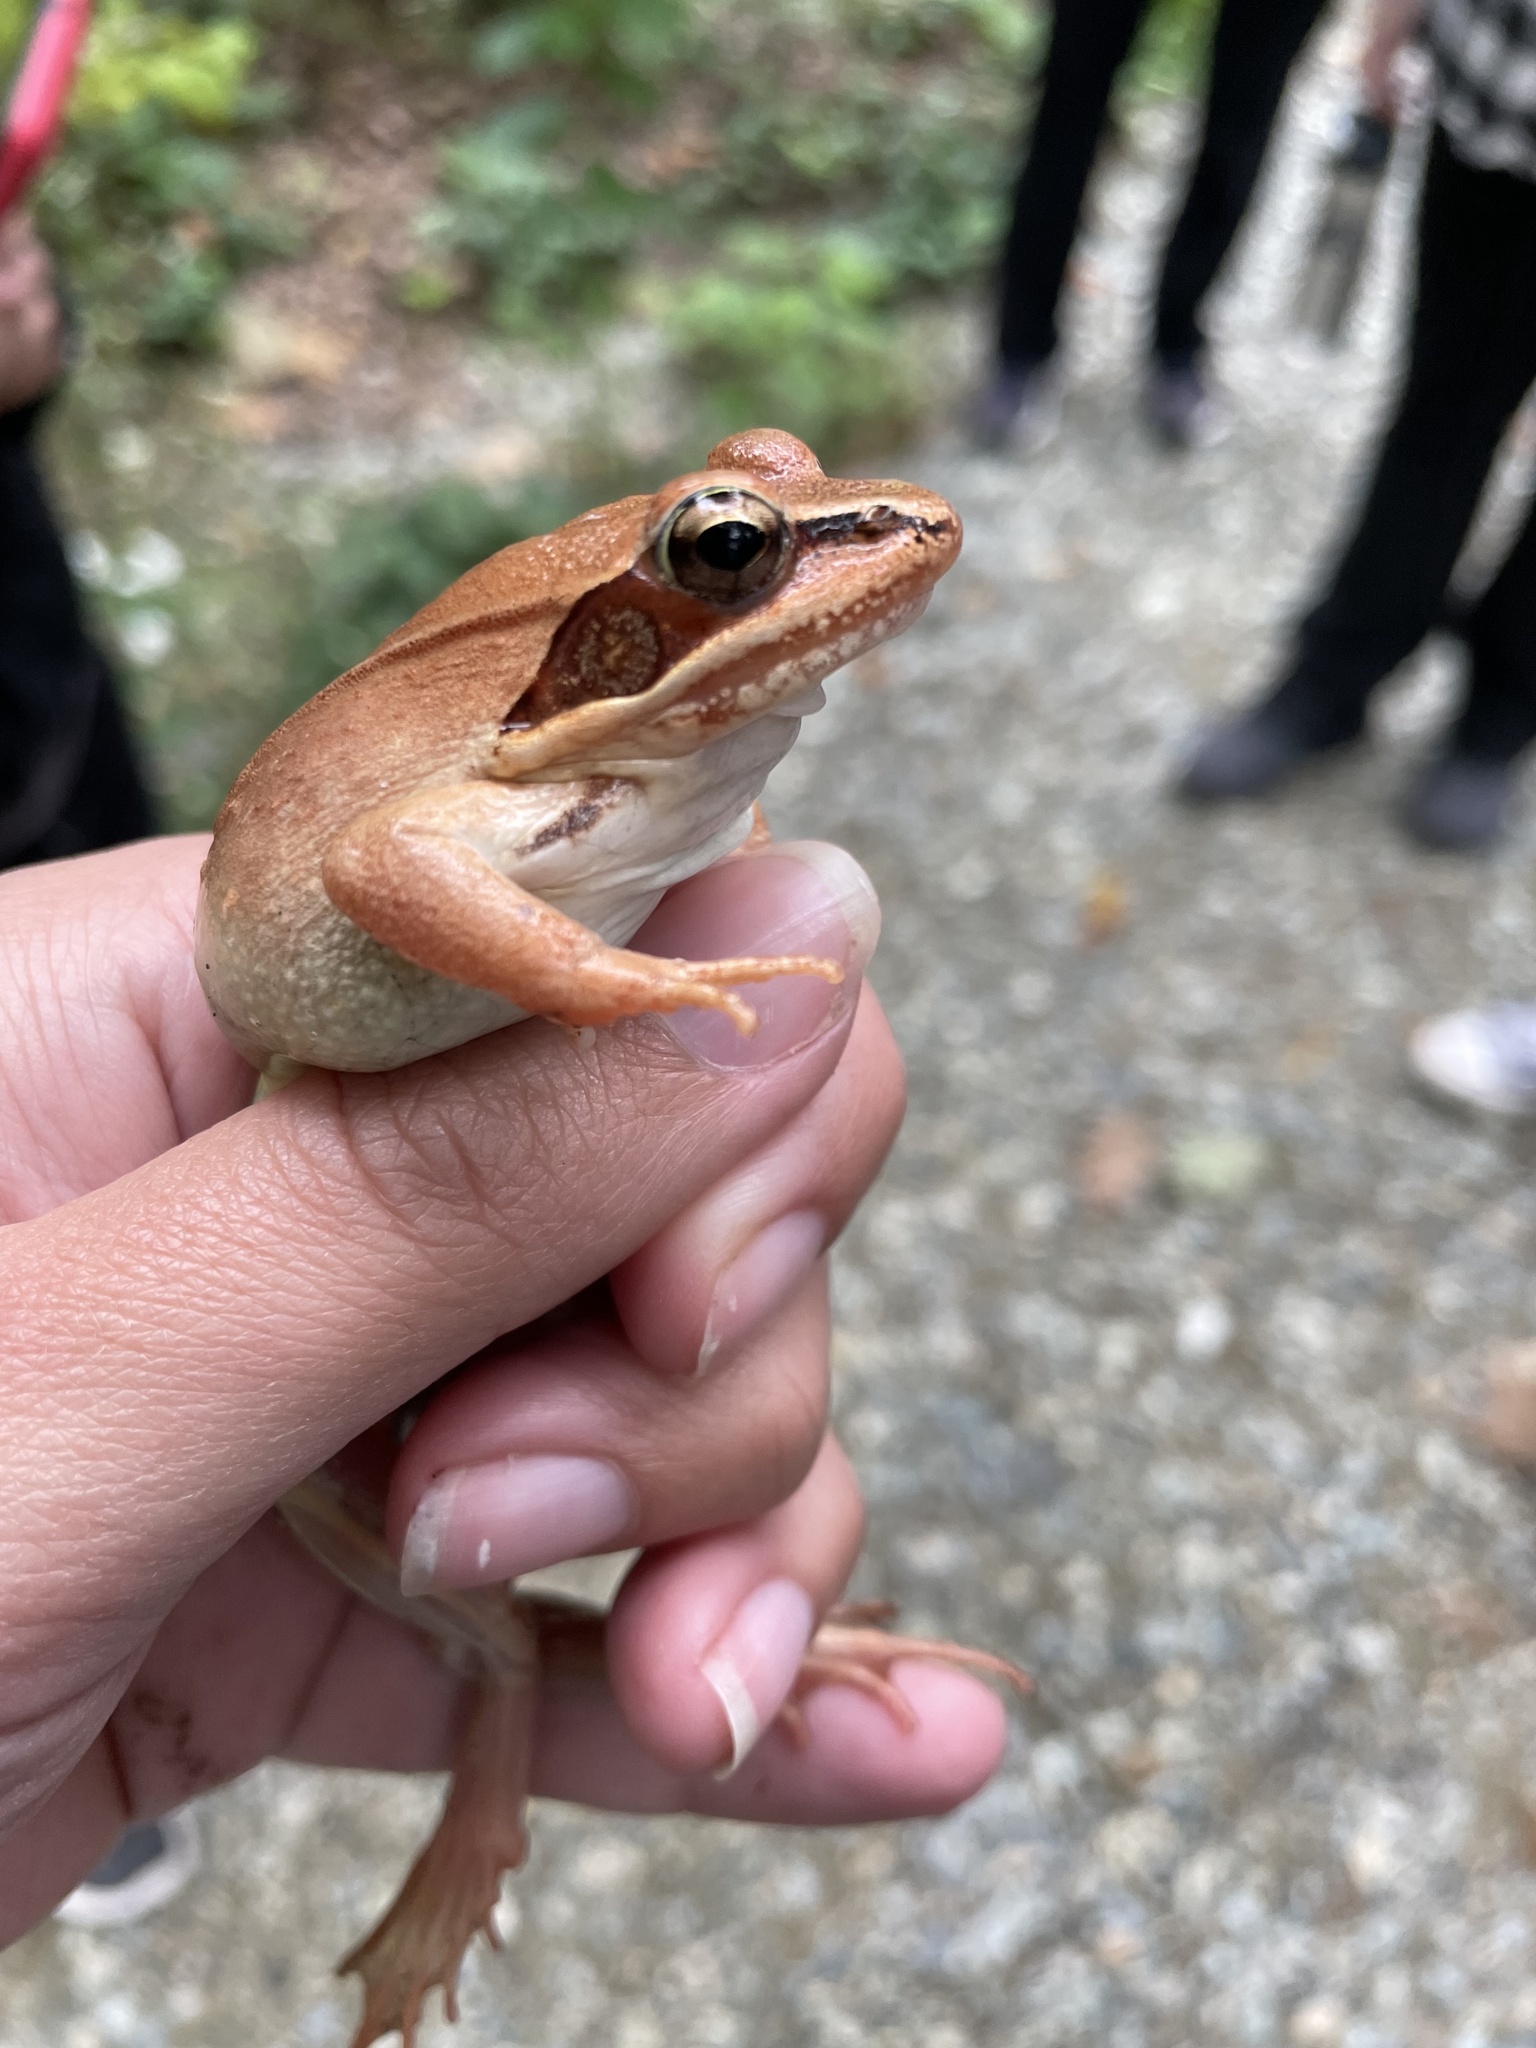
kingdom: Animalia
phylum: Chordata
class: Amphibia
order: Anura
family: Ranidae
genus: Lithobates
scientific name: Lithobates sylvaticus
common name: Wood frog
